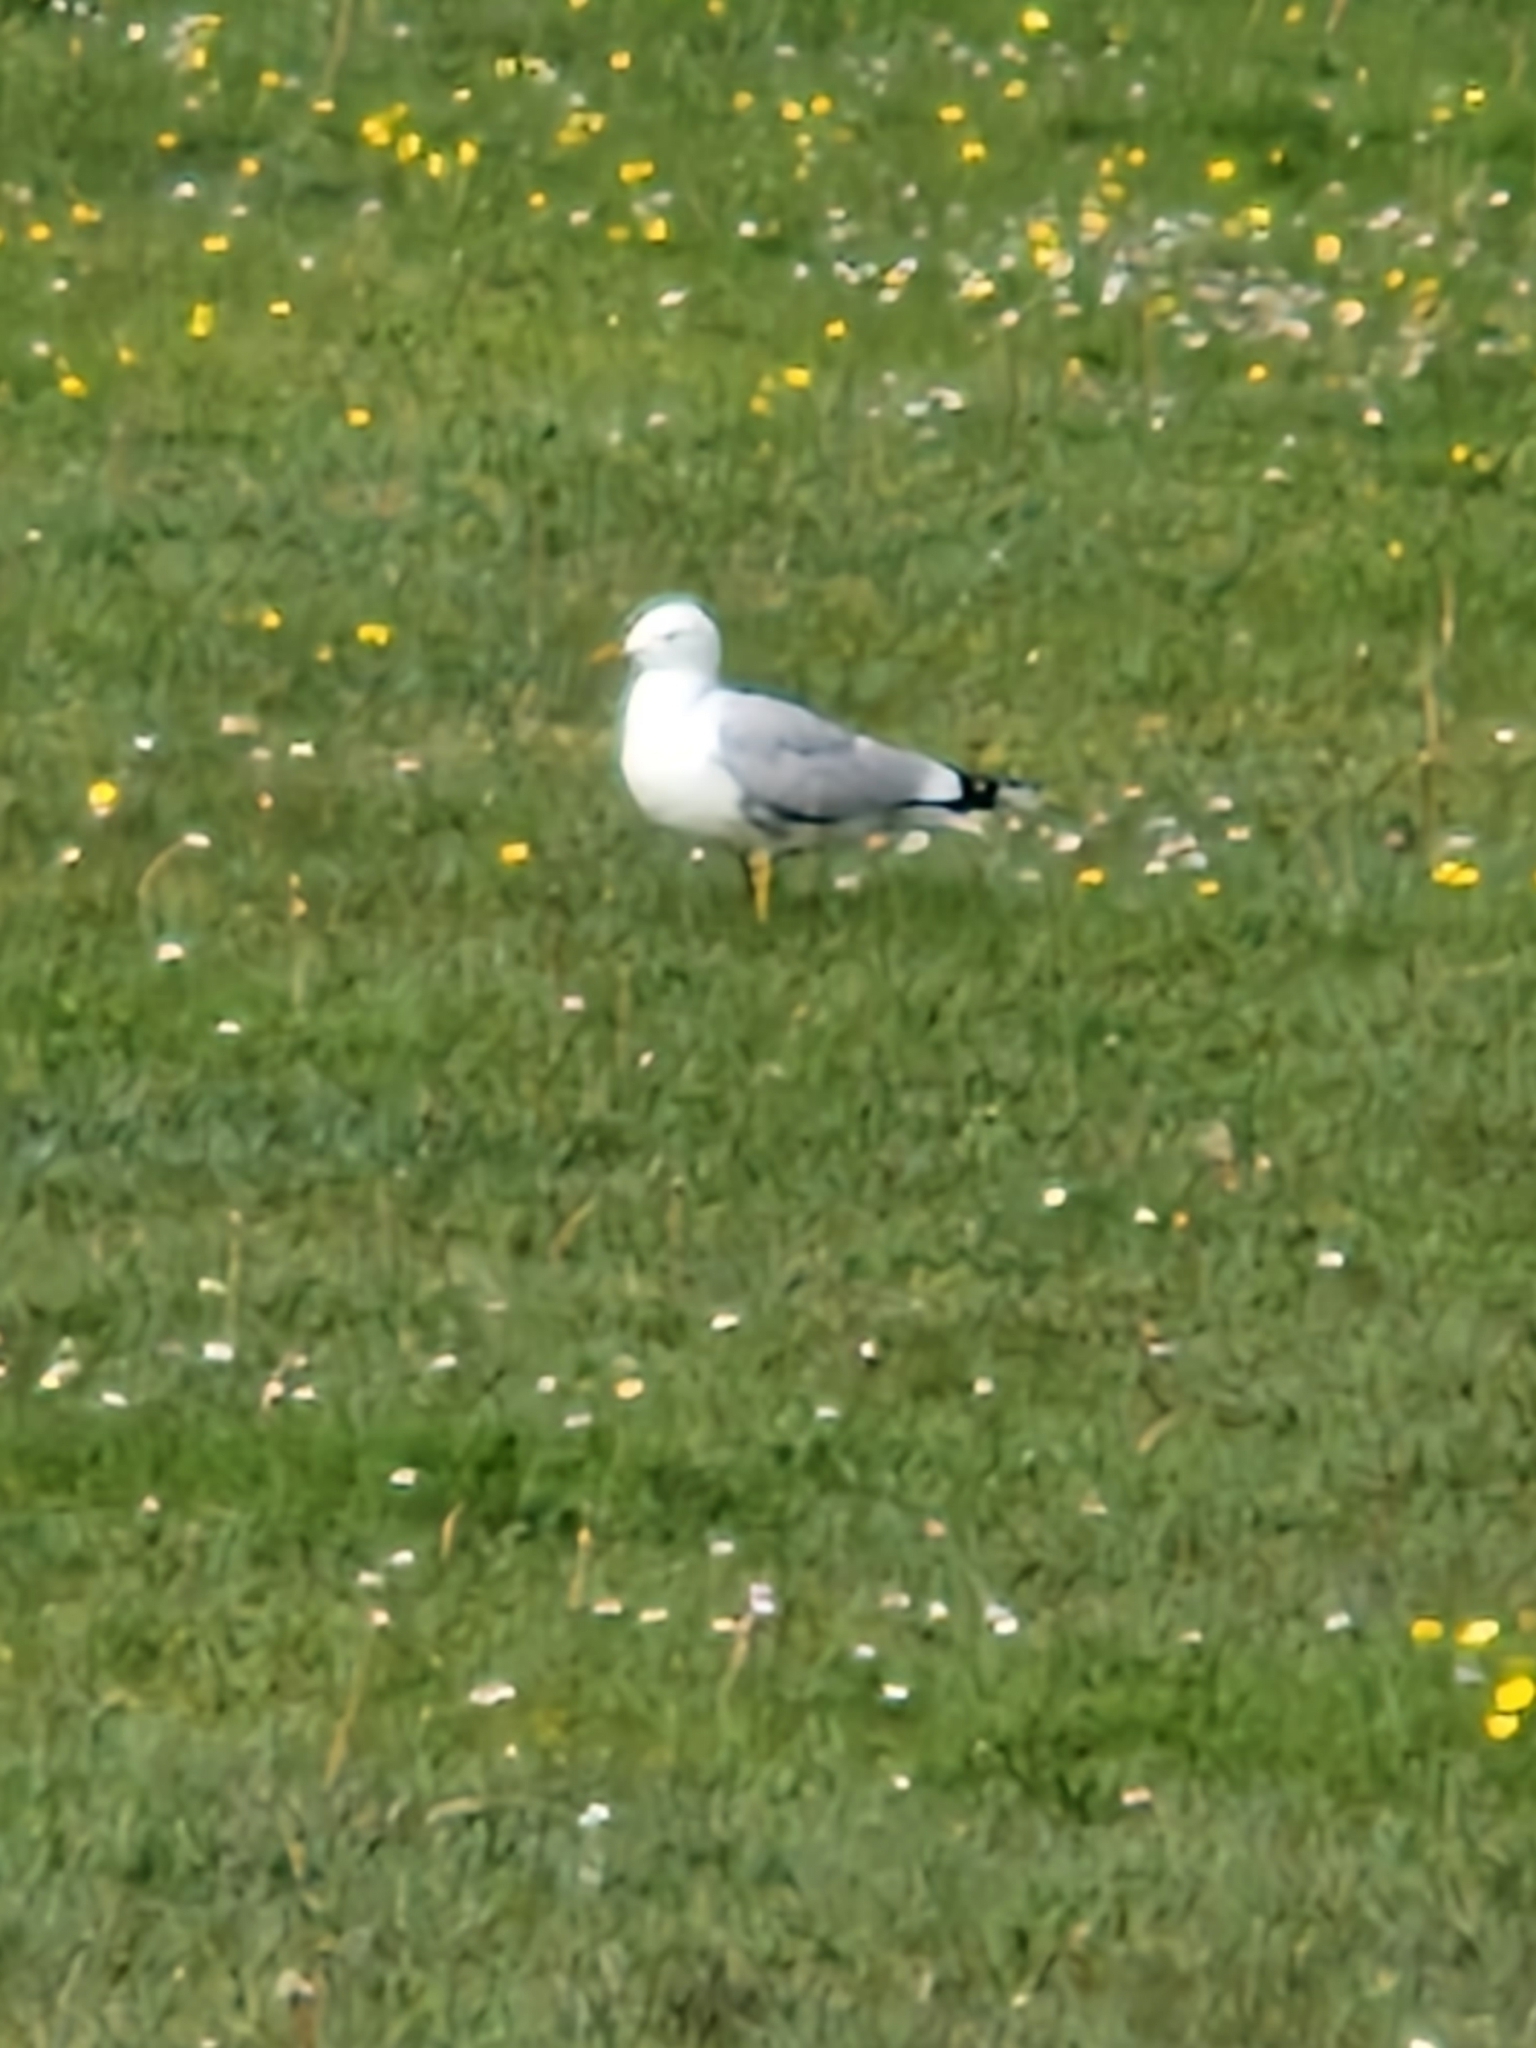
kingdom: Animalia
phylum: Chordata
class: Aves
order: Charadriiformes
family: Laridae
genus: Larus
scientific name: Larus canus
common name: Mew gull
